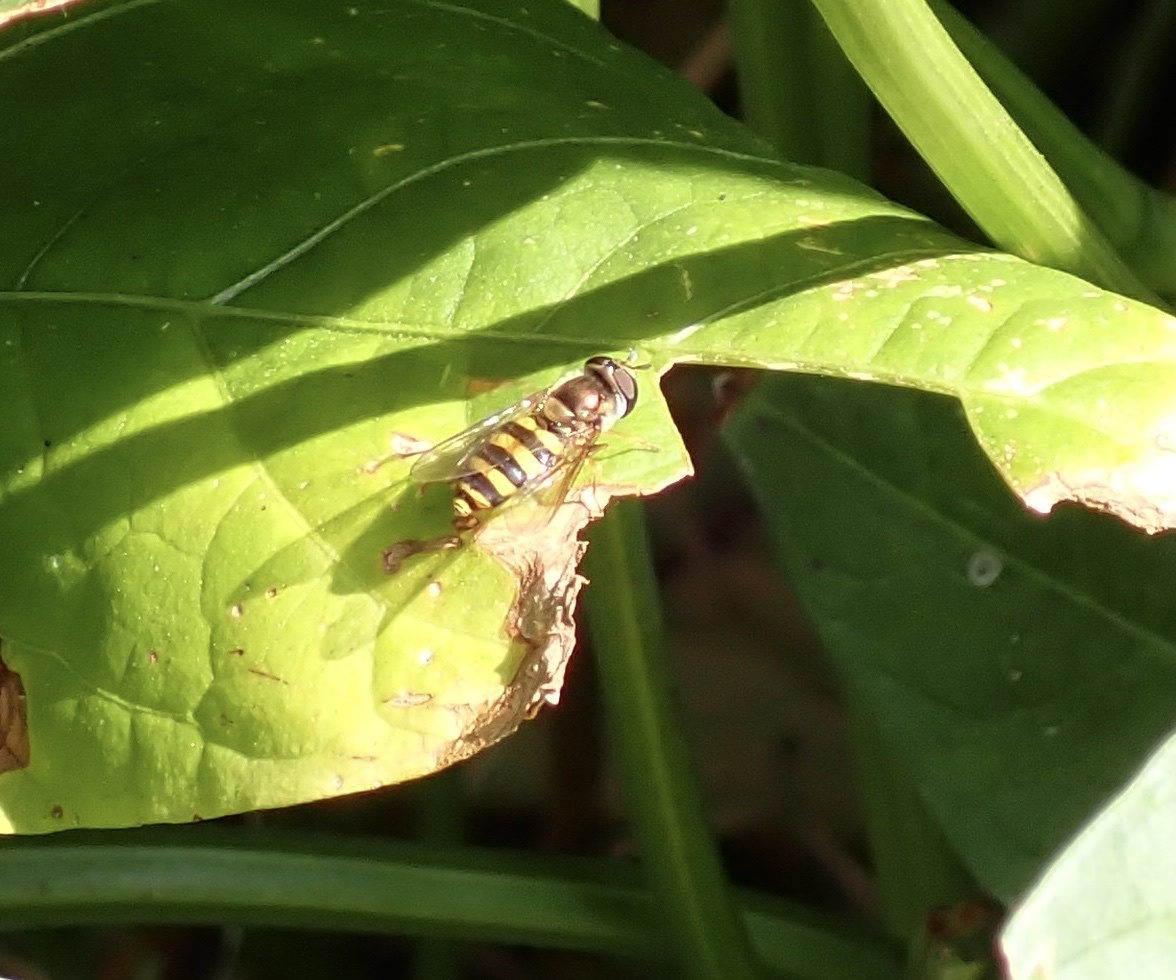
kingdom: Animalia
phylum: Arthropoda
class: Insecta
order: Diptera
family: Syrphidae
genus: Eupeodes
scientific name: Eupeodes
